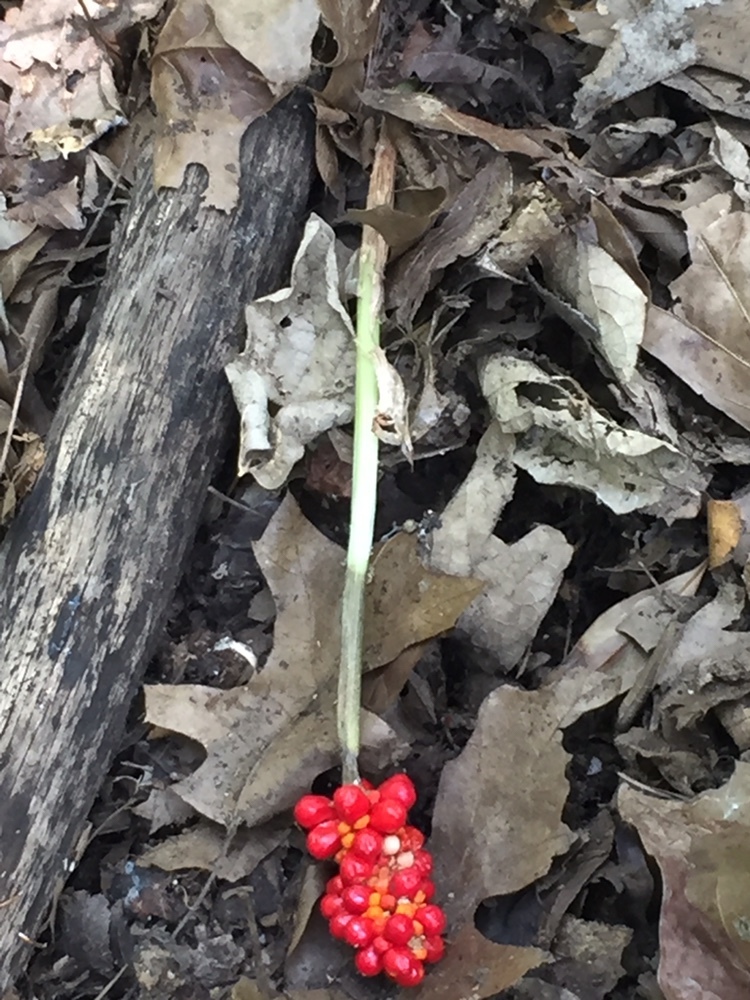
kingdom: Plantae
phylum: Tracheophyta
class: Liliopsida
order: Alismatales
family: Araceae
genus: Arisaema
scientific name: Arisaema dracontium
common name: Dragon-arum
